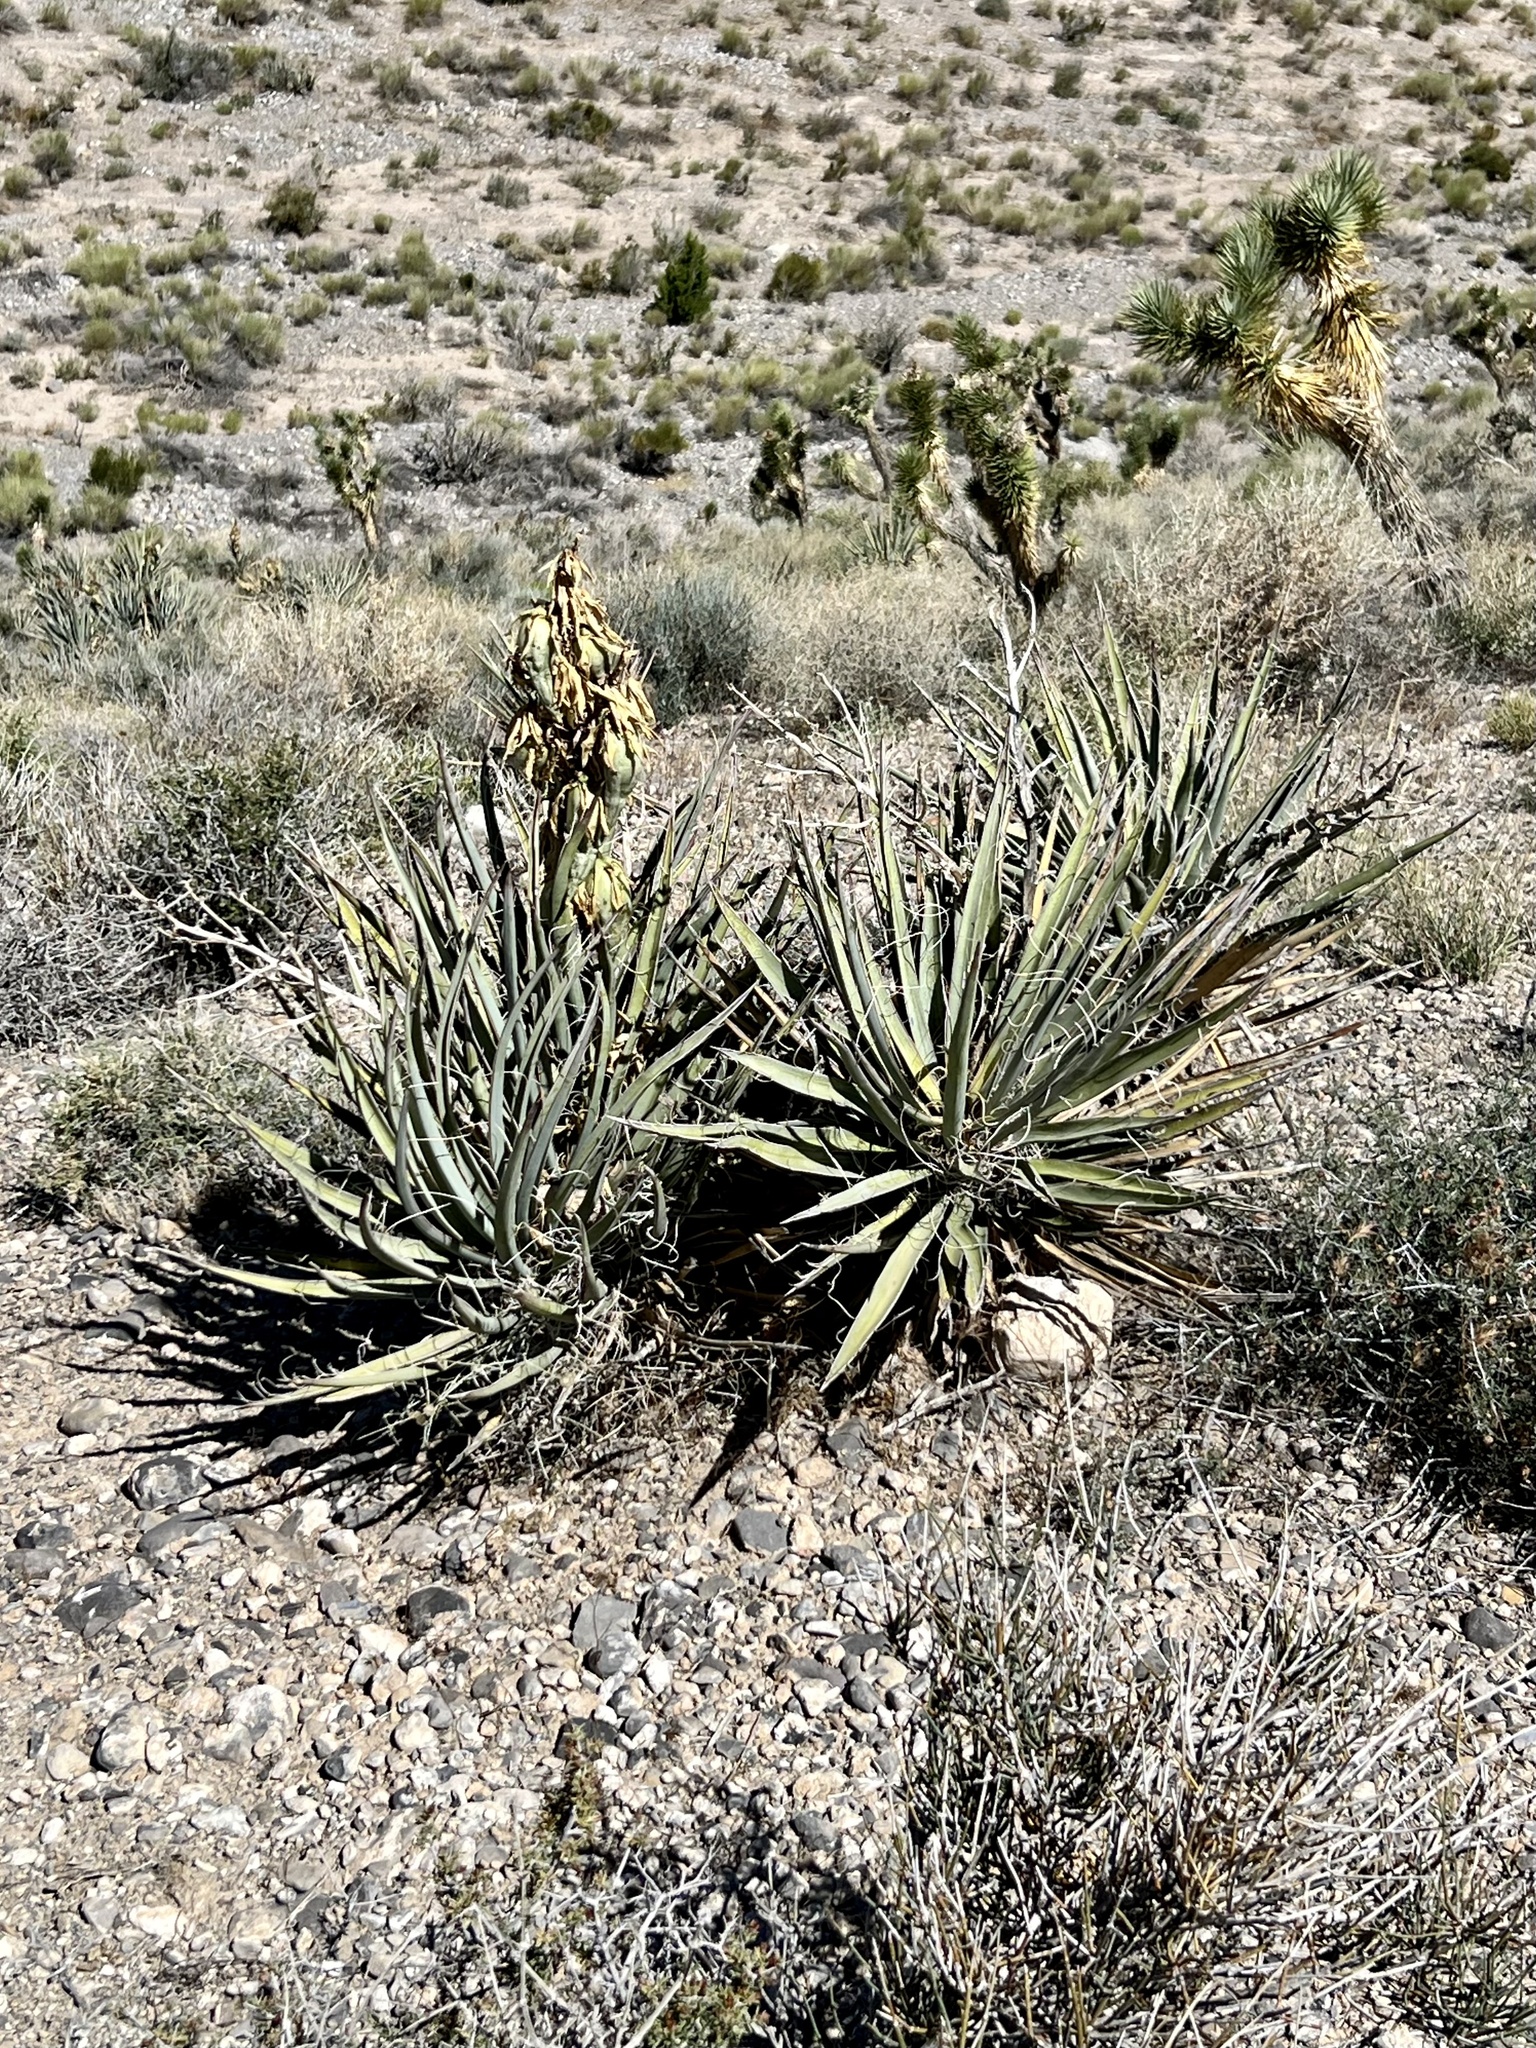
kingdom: Plantae
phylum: Tracheophyta
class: Liliopsida
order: Asparagales
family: Asparagaceae
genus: Yucca
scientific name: Yucca baccata
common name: Banana yucca
